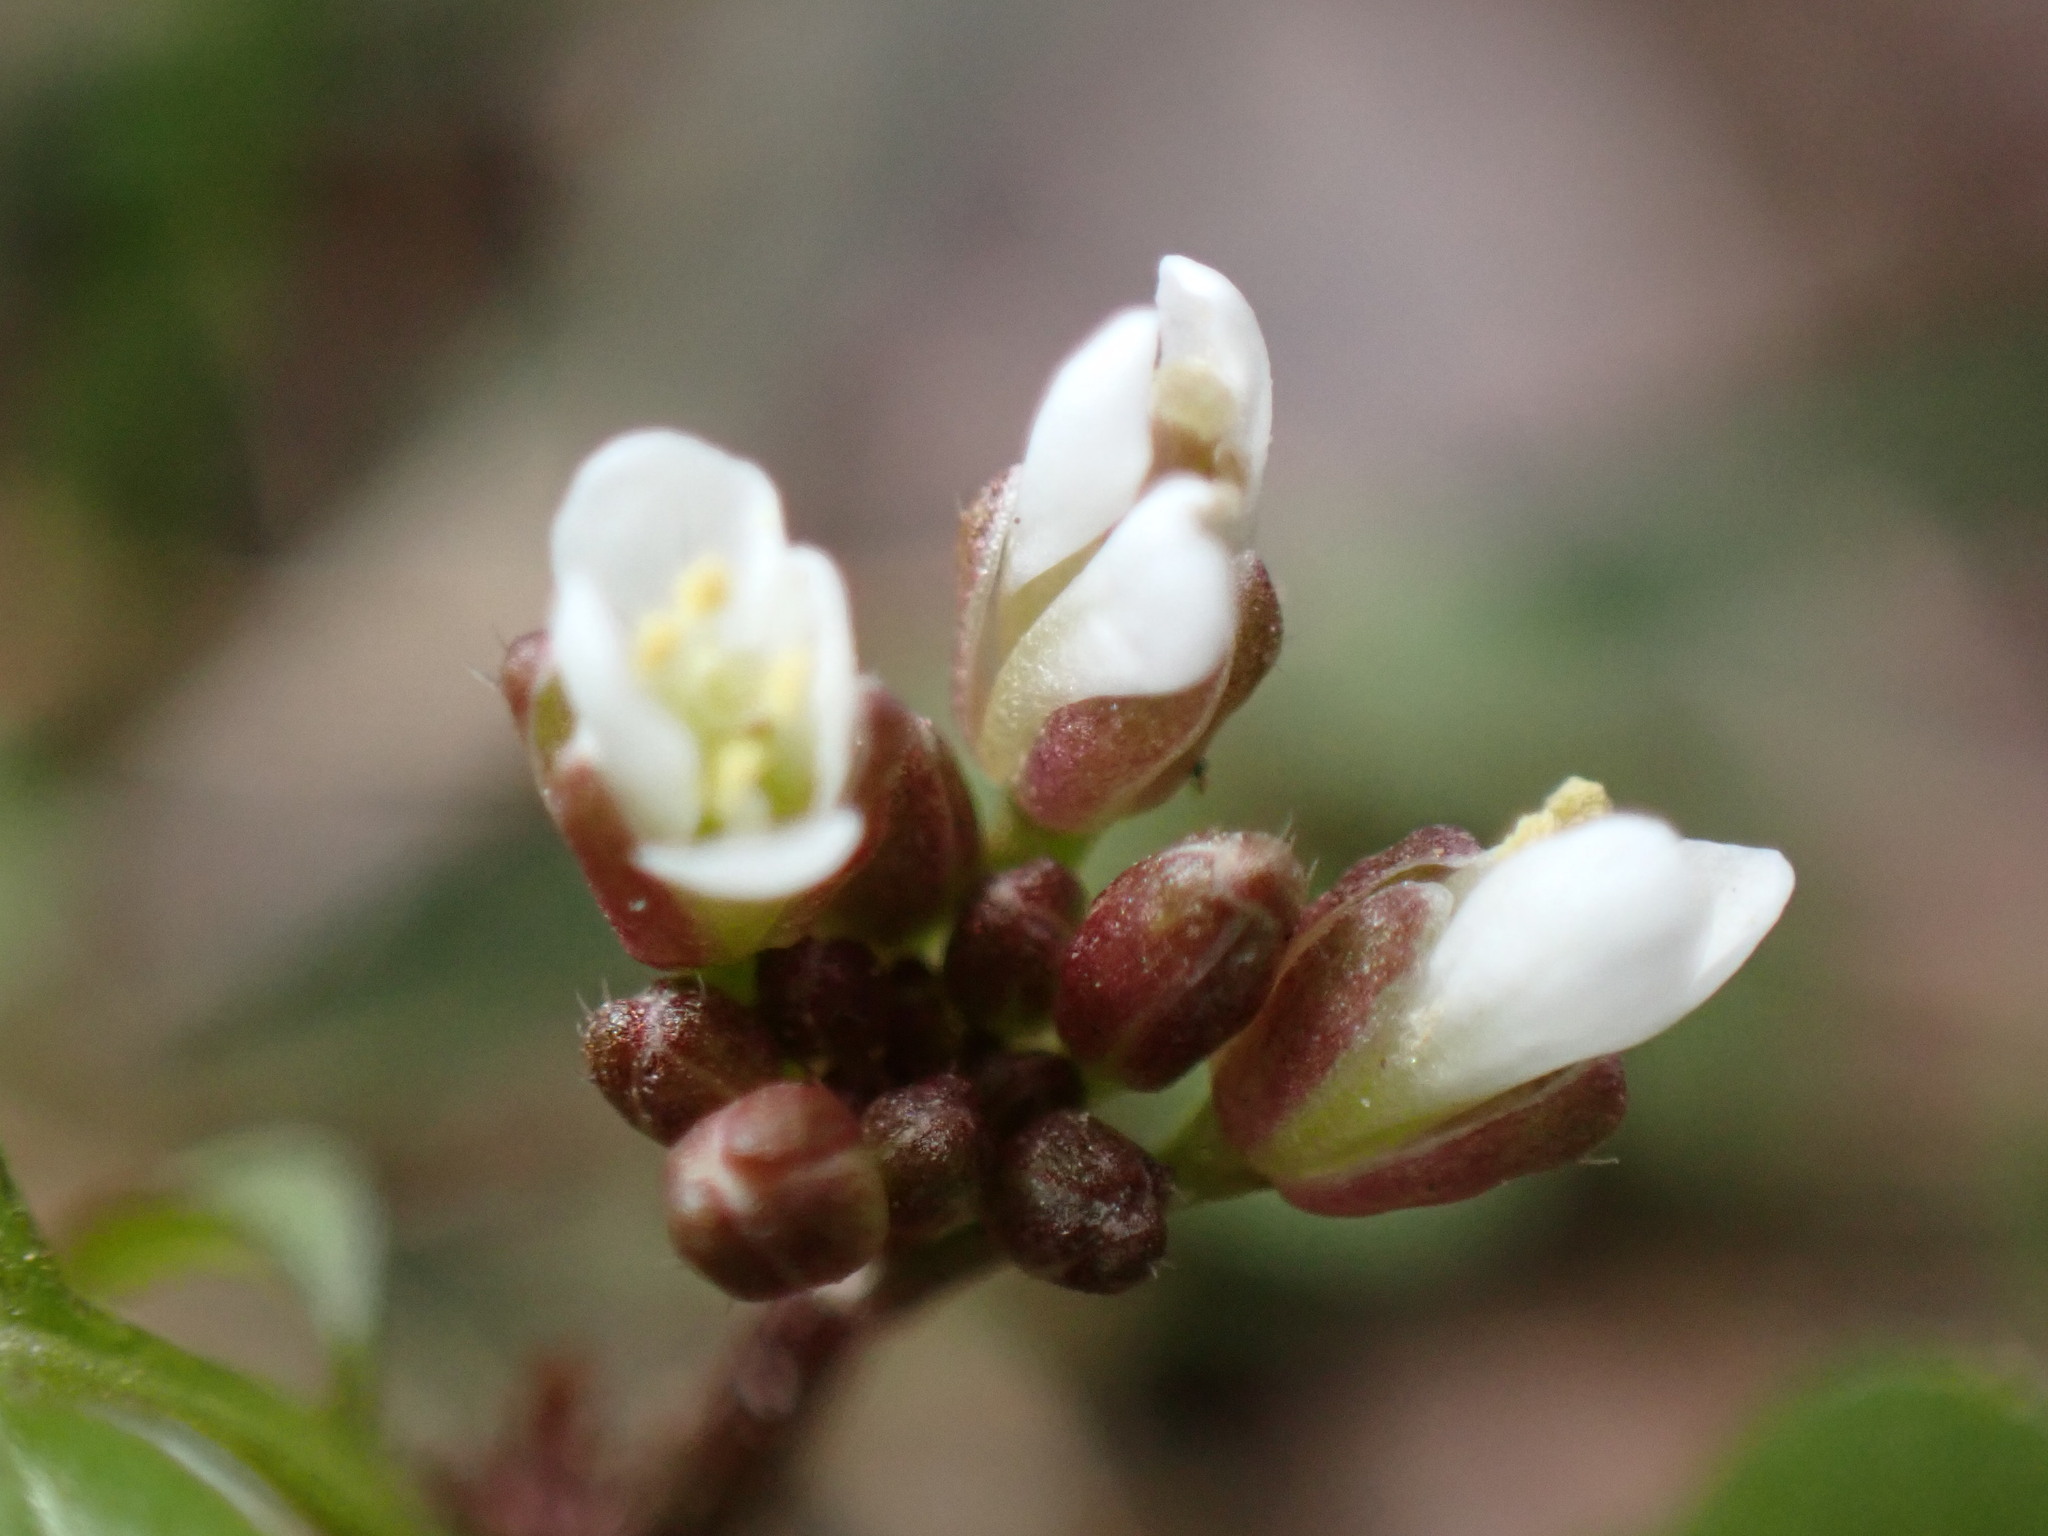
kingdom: Plantae
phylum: Tracheophyta
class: Magnoliopsida
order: Brassicales
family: Brassicaceae
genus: Cardamine
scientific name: Cardamine hirsuta
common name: Hairy bittercress
